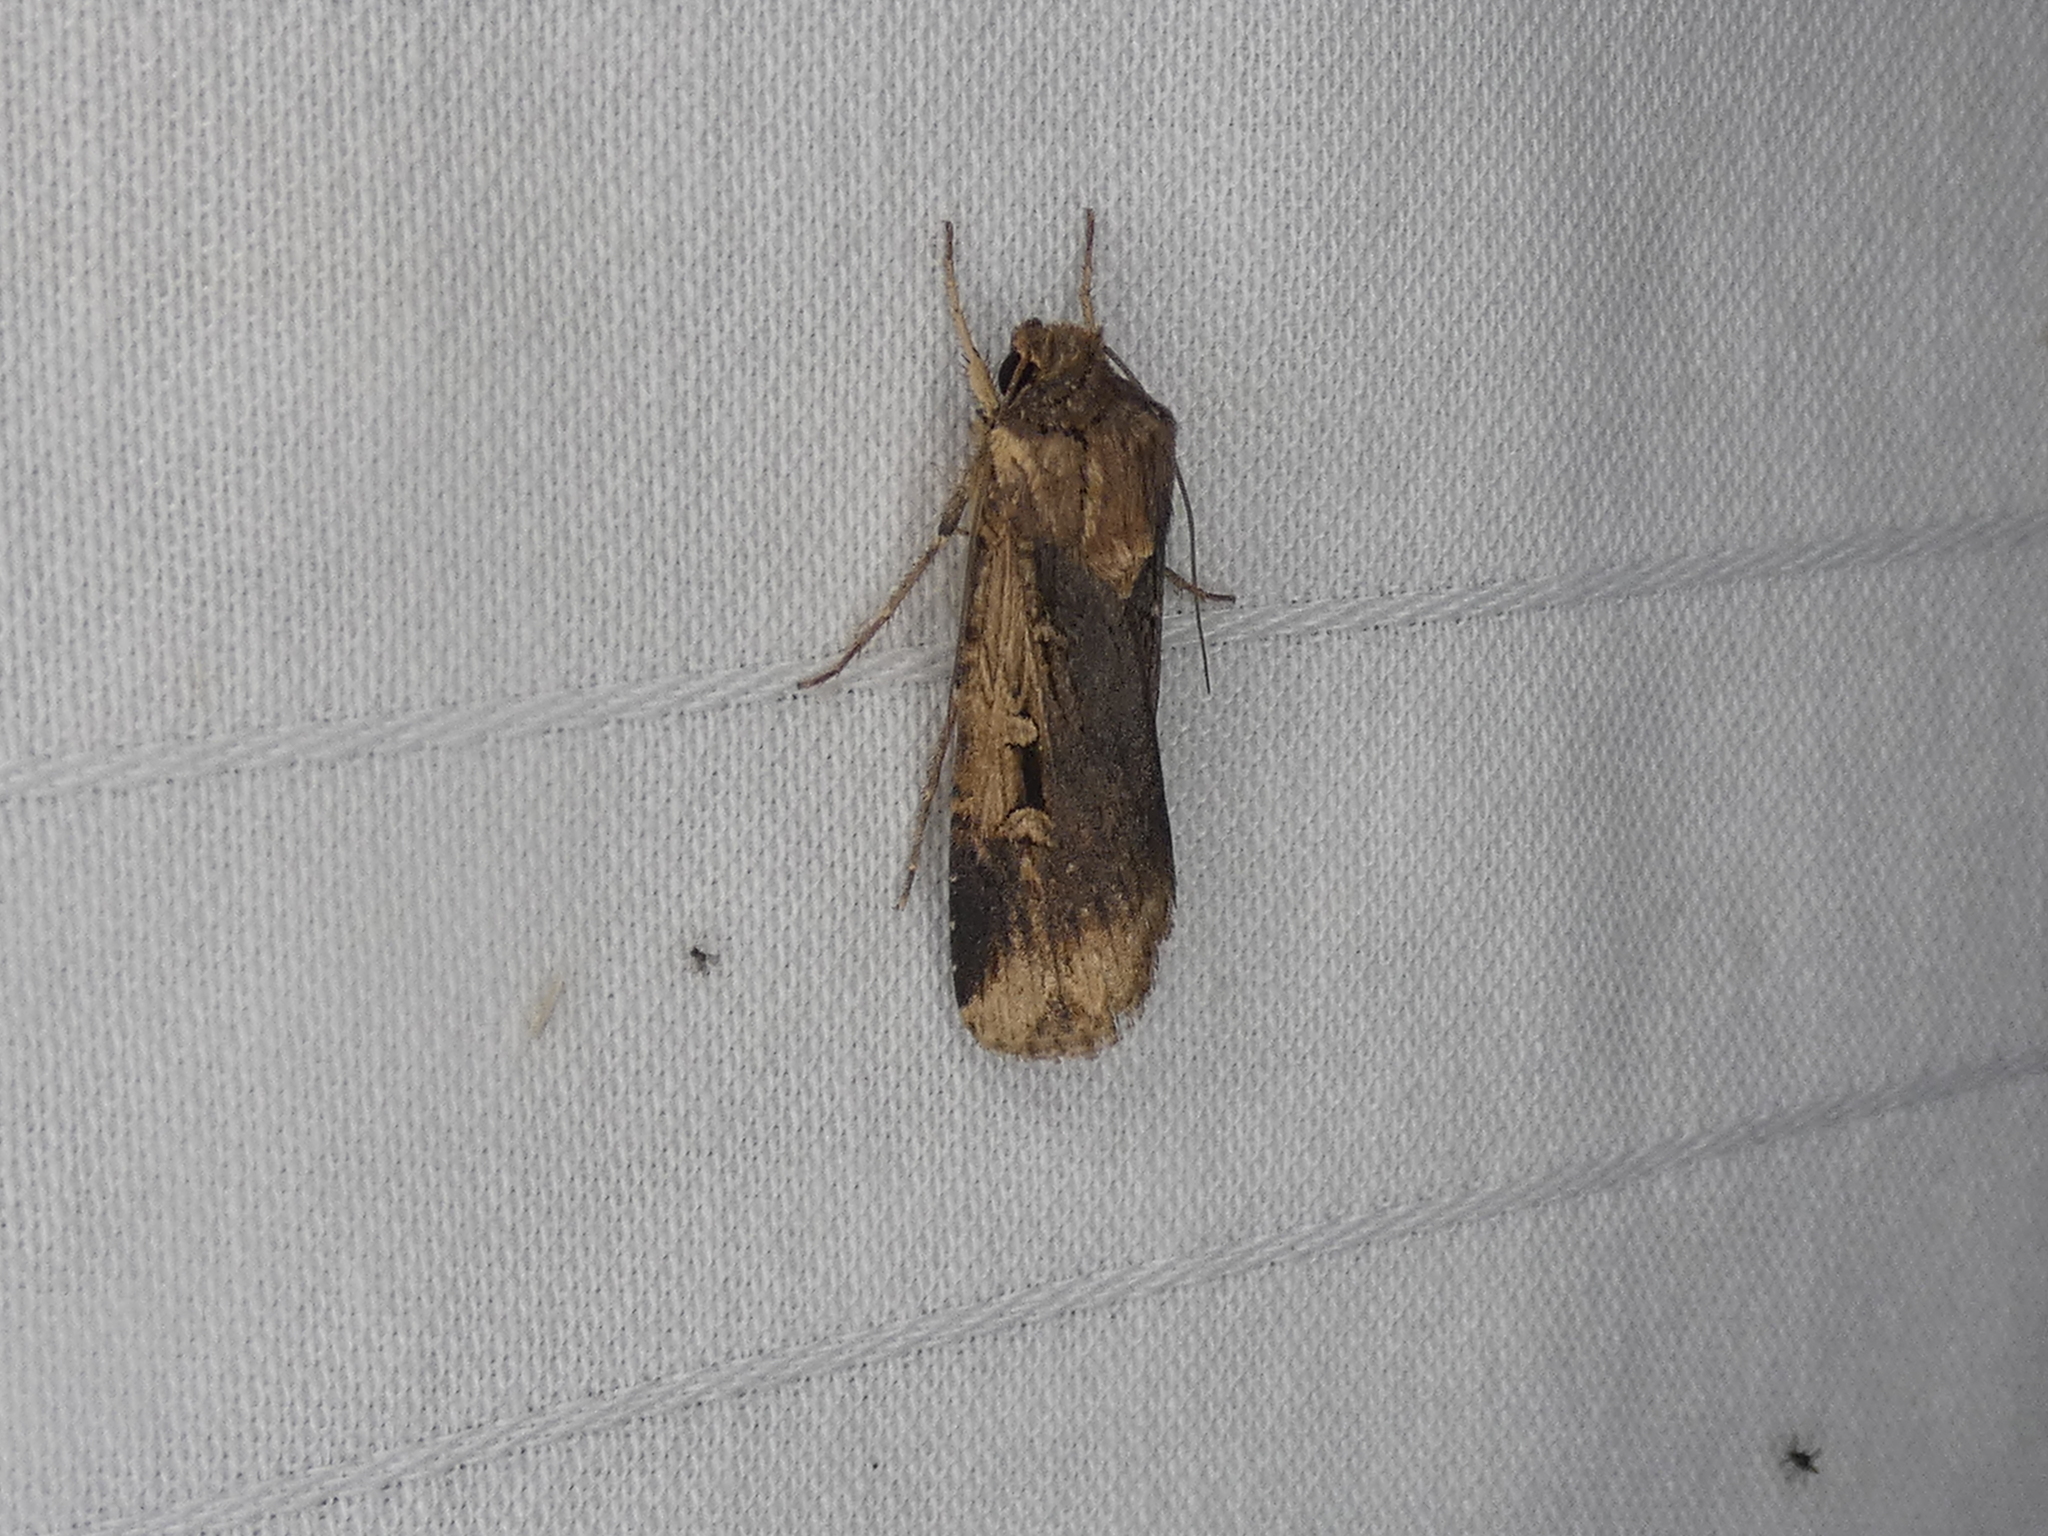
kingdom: Animalia
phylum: Arthropoda
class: Insecta
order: Lepidoptera
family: Noctuidae
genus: Feltia
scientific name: Feltia subterranea
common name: Granulate cutworm
